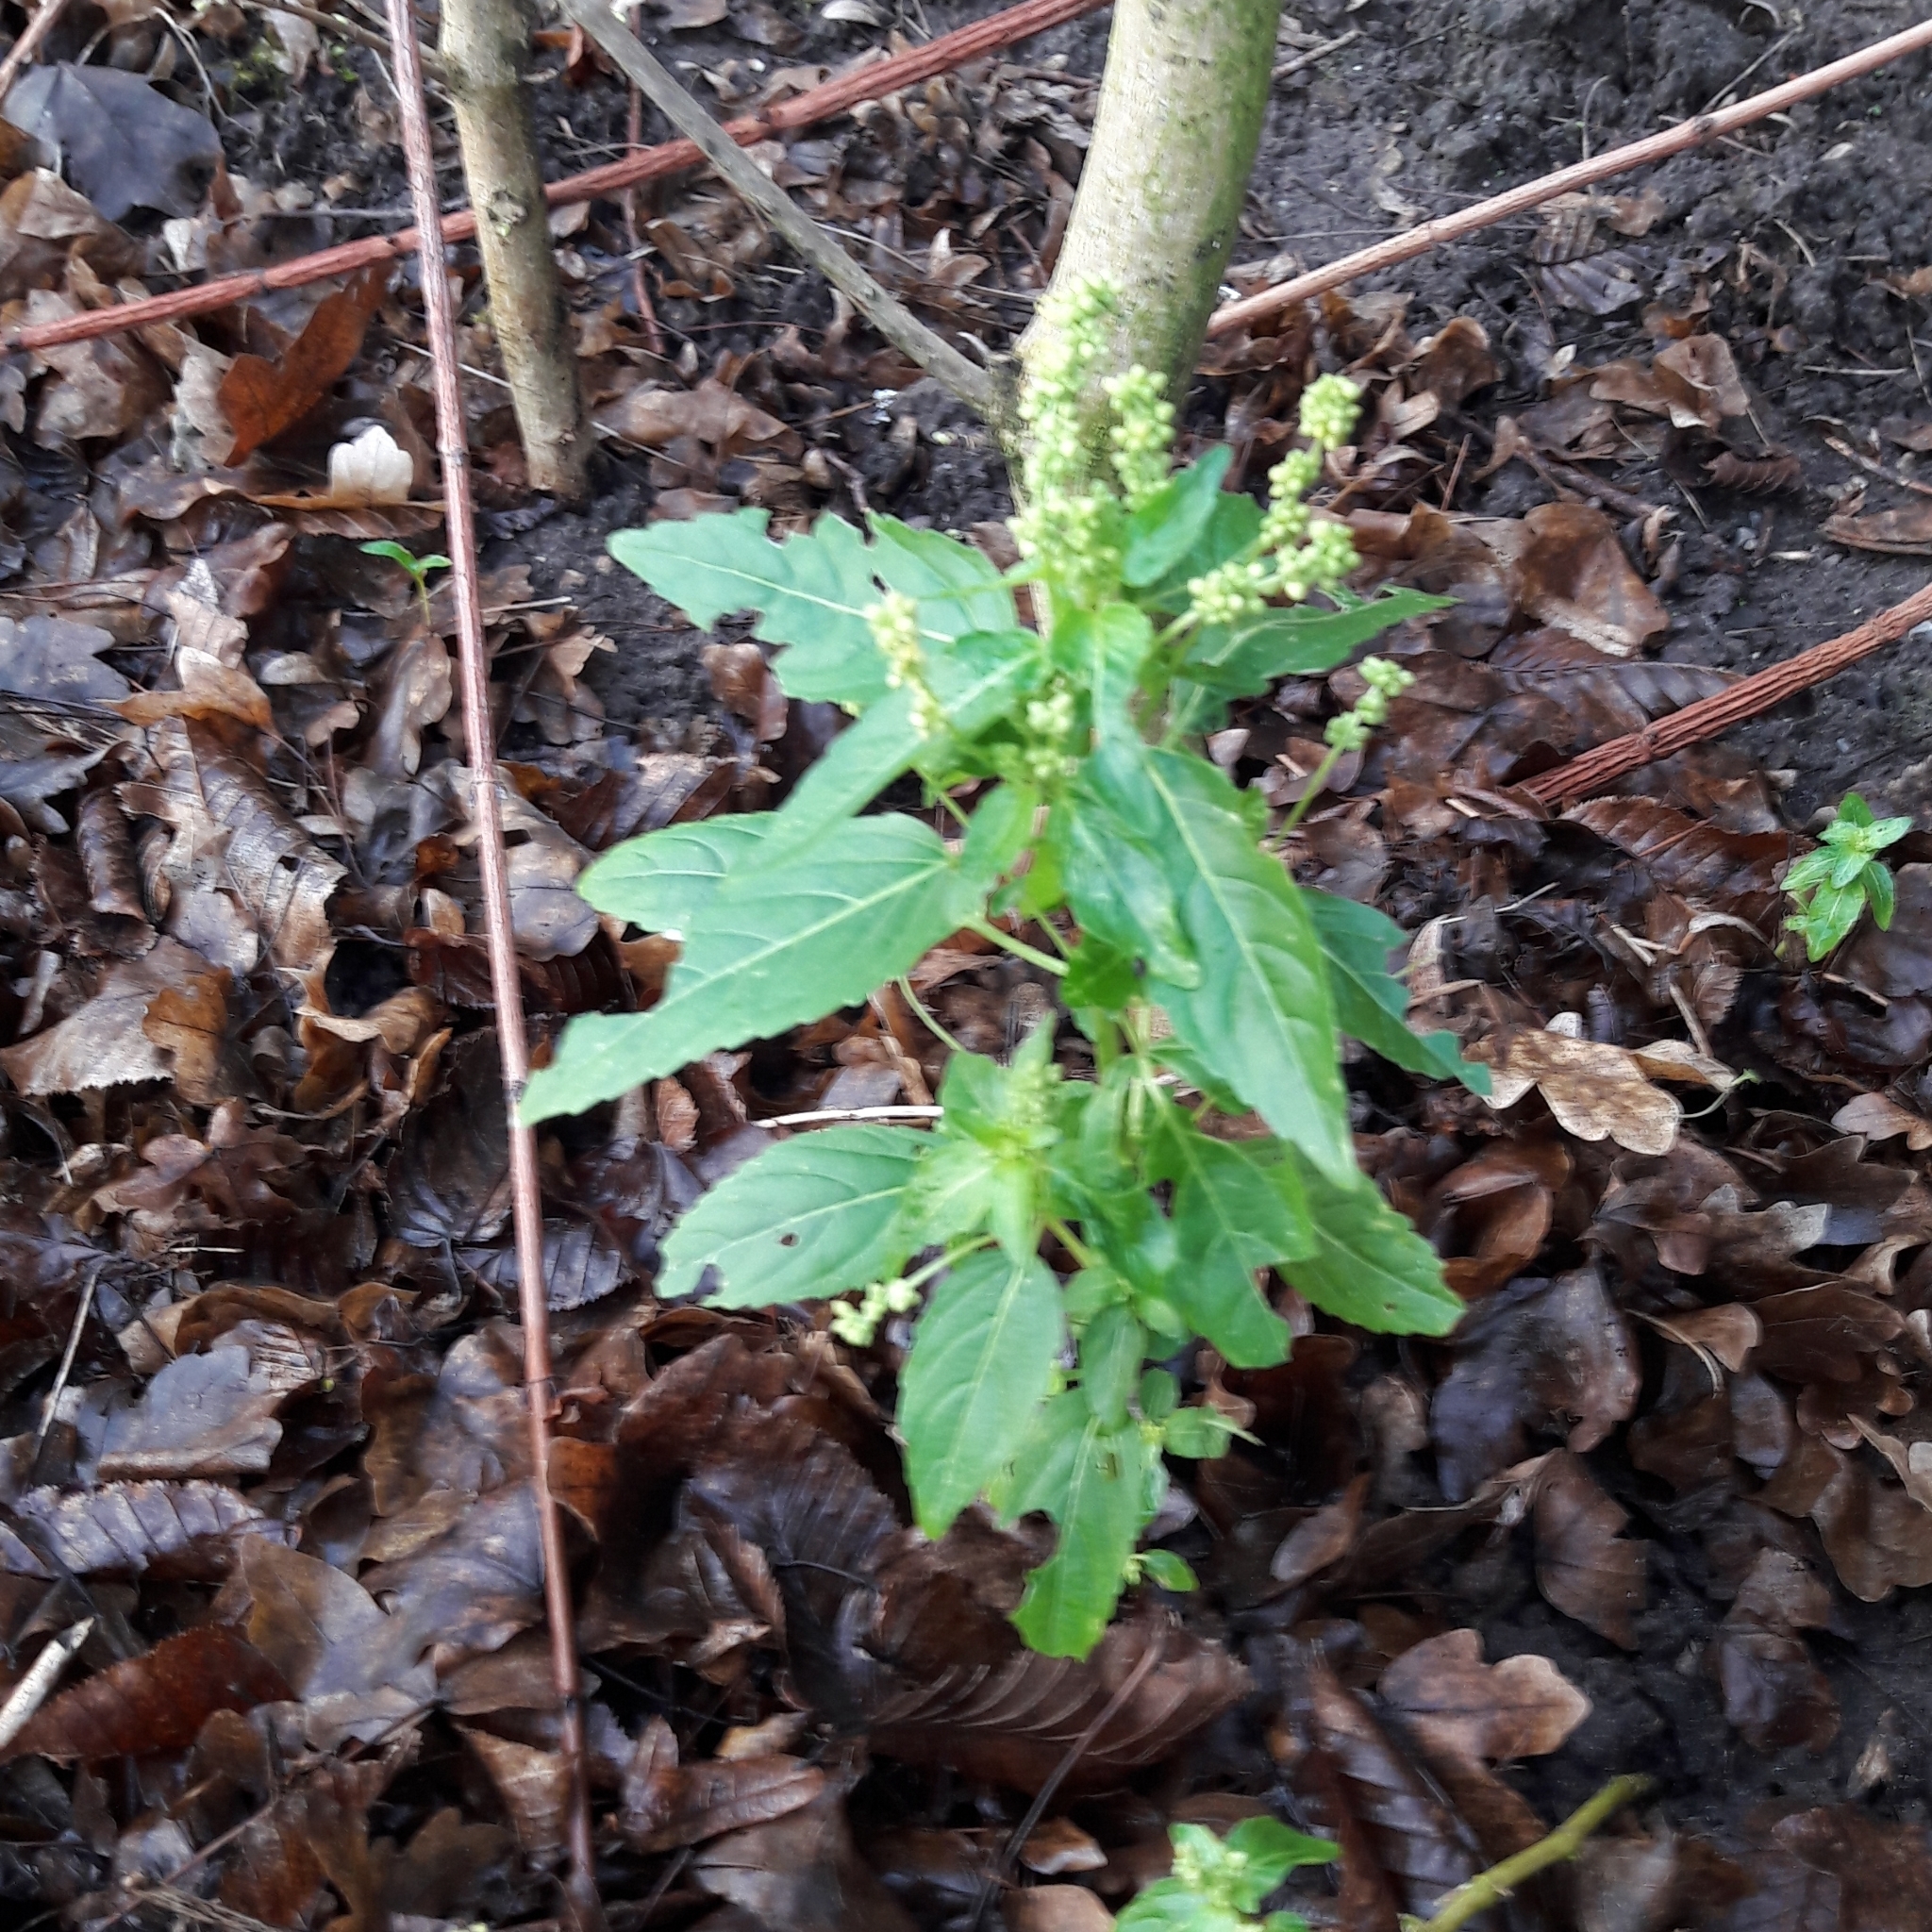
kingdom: Plantae
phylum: Tracheophyta
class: Magnoliopsida
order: Malpighiales
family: Euphorbiaceae
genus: Mercurialis
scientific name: Mercurialis annua
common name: Annual mercury
